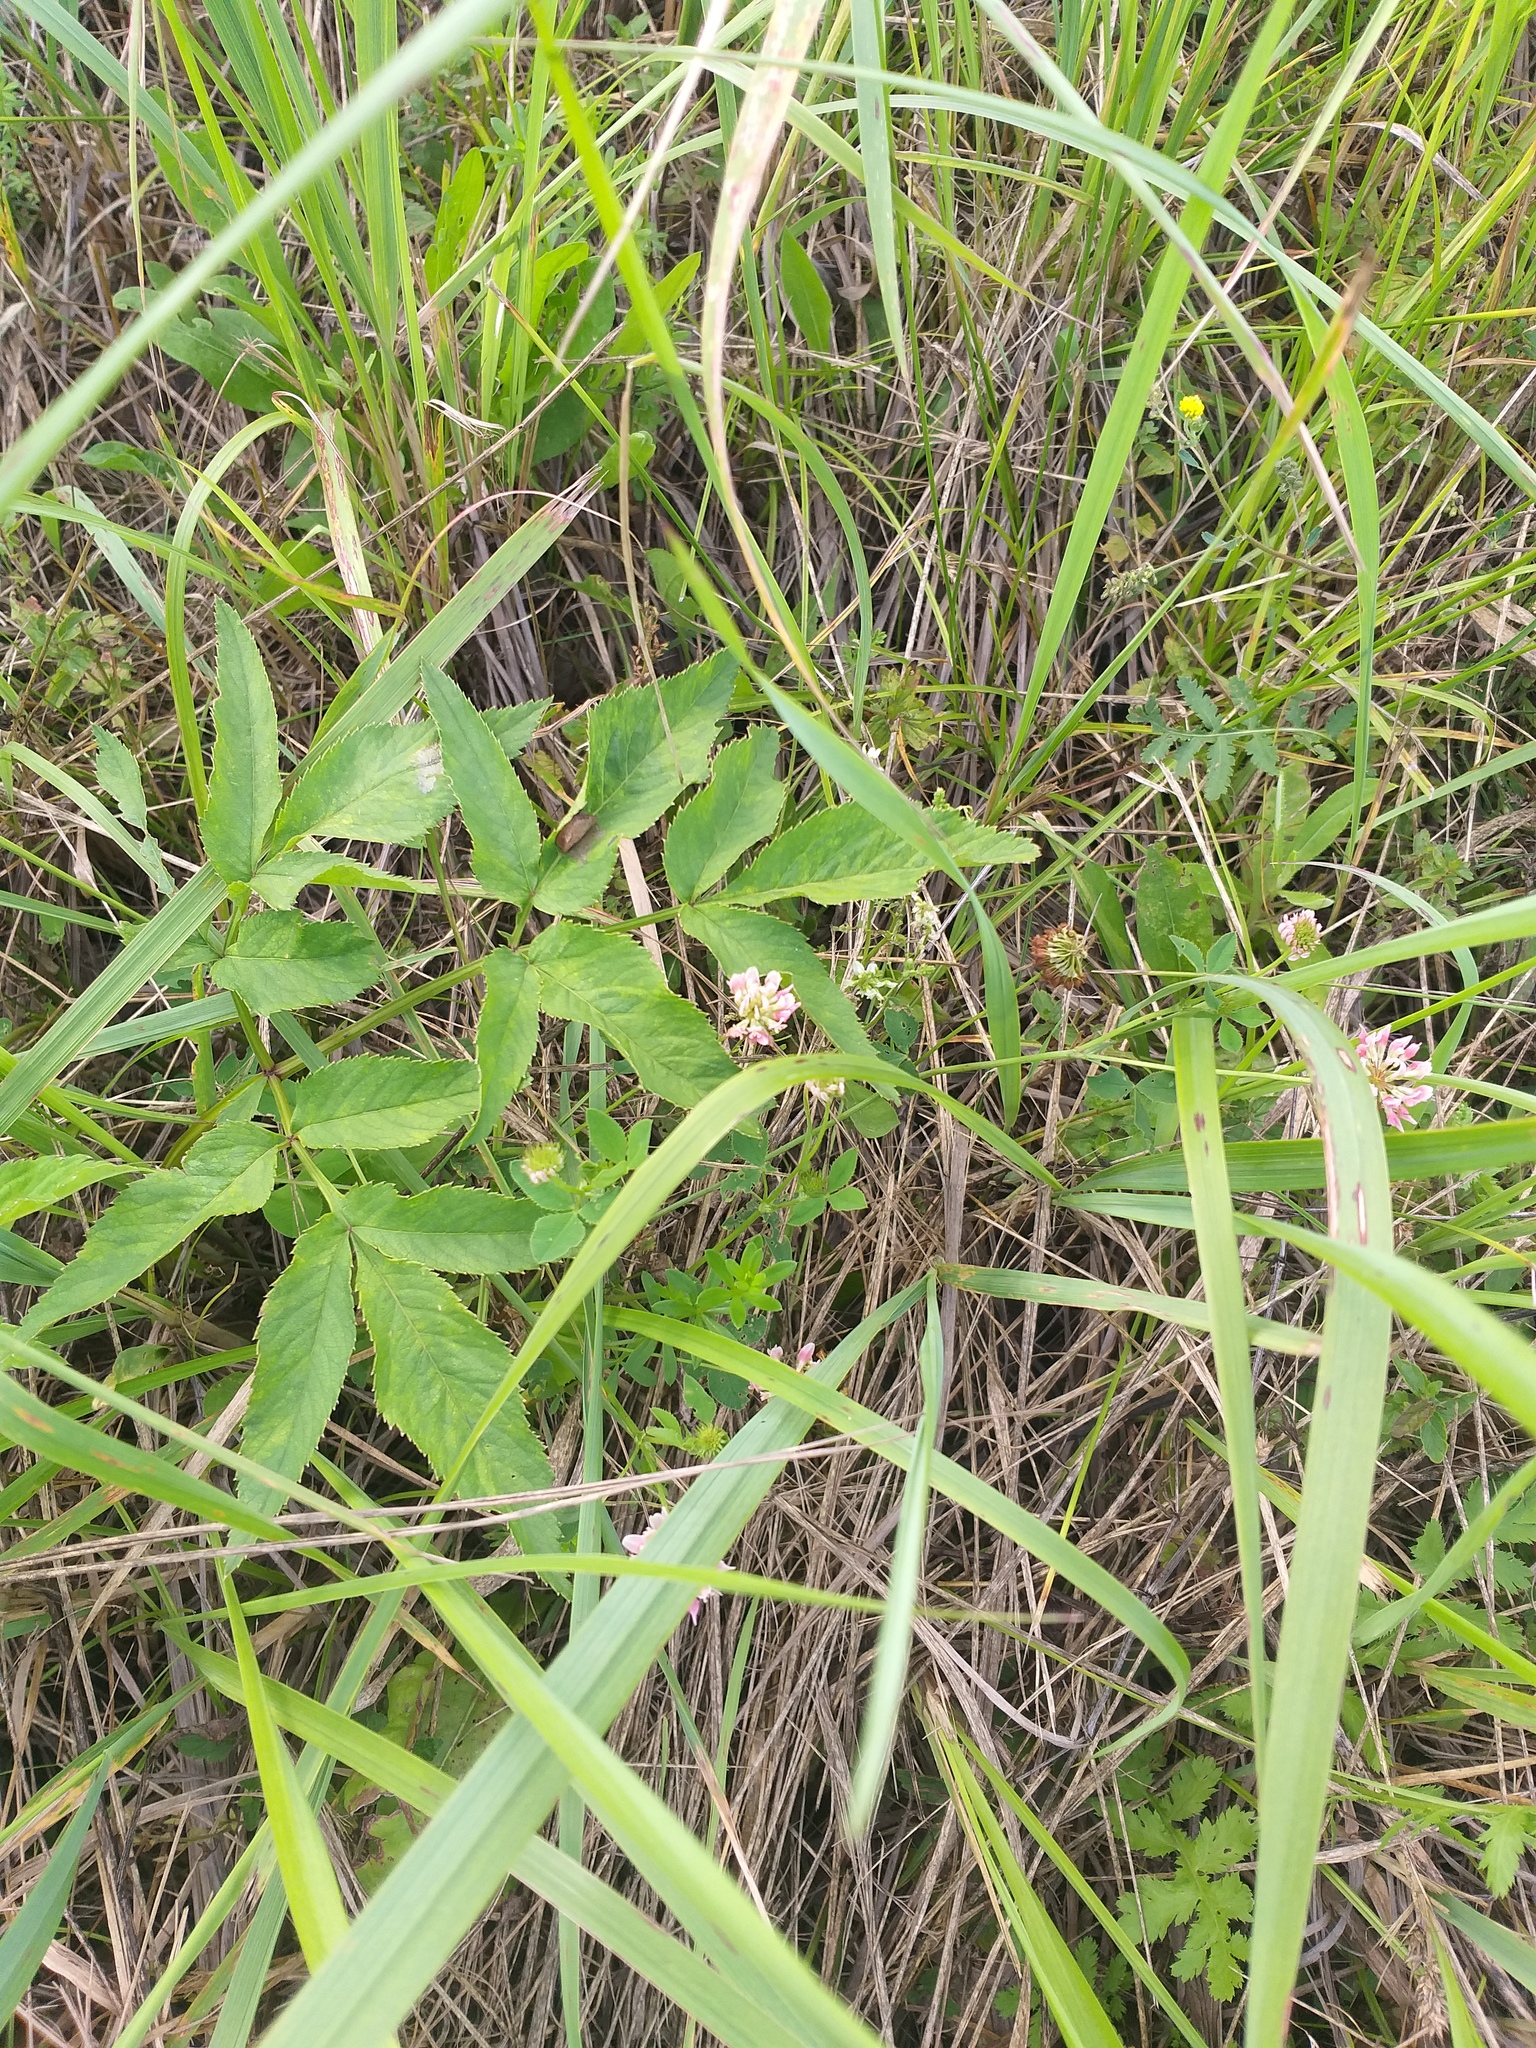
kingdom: Plantae
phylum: Tracheophyta
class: Magnoliopsida
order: Fabales
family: Fabaceae
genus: Trifolium
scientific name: Trifolium hybridum
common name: Alsike clover
